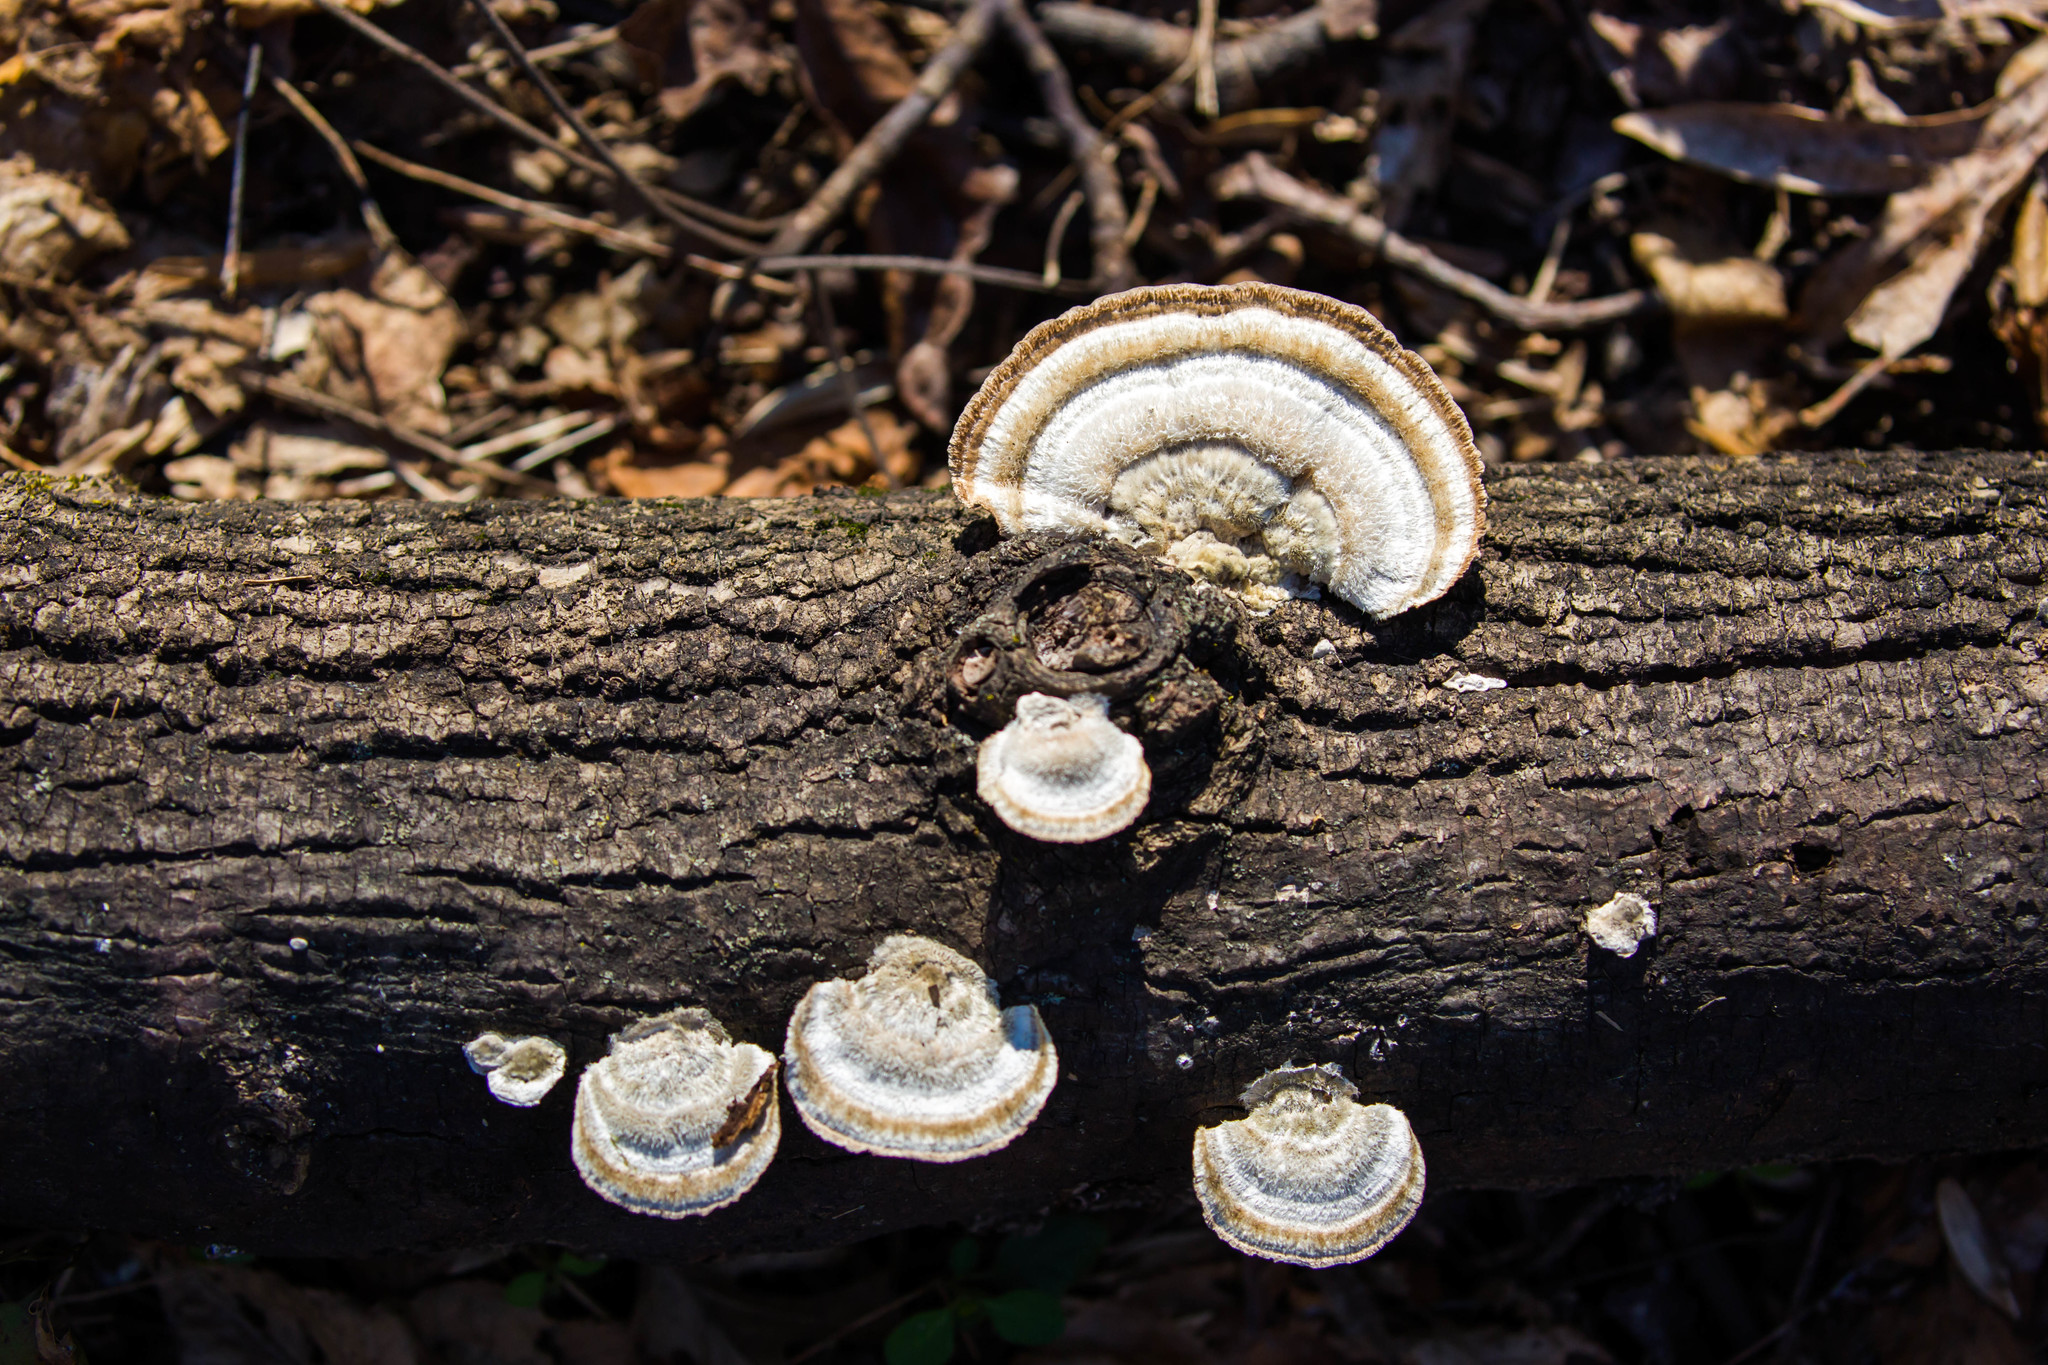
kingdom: Fungi
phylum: Basidiomycota
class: Agaricomycetes
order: Polyporales
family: Polyporaceae
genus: Trametes
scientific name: Trametes hirsuta
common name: Hairy bracket
